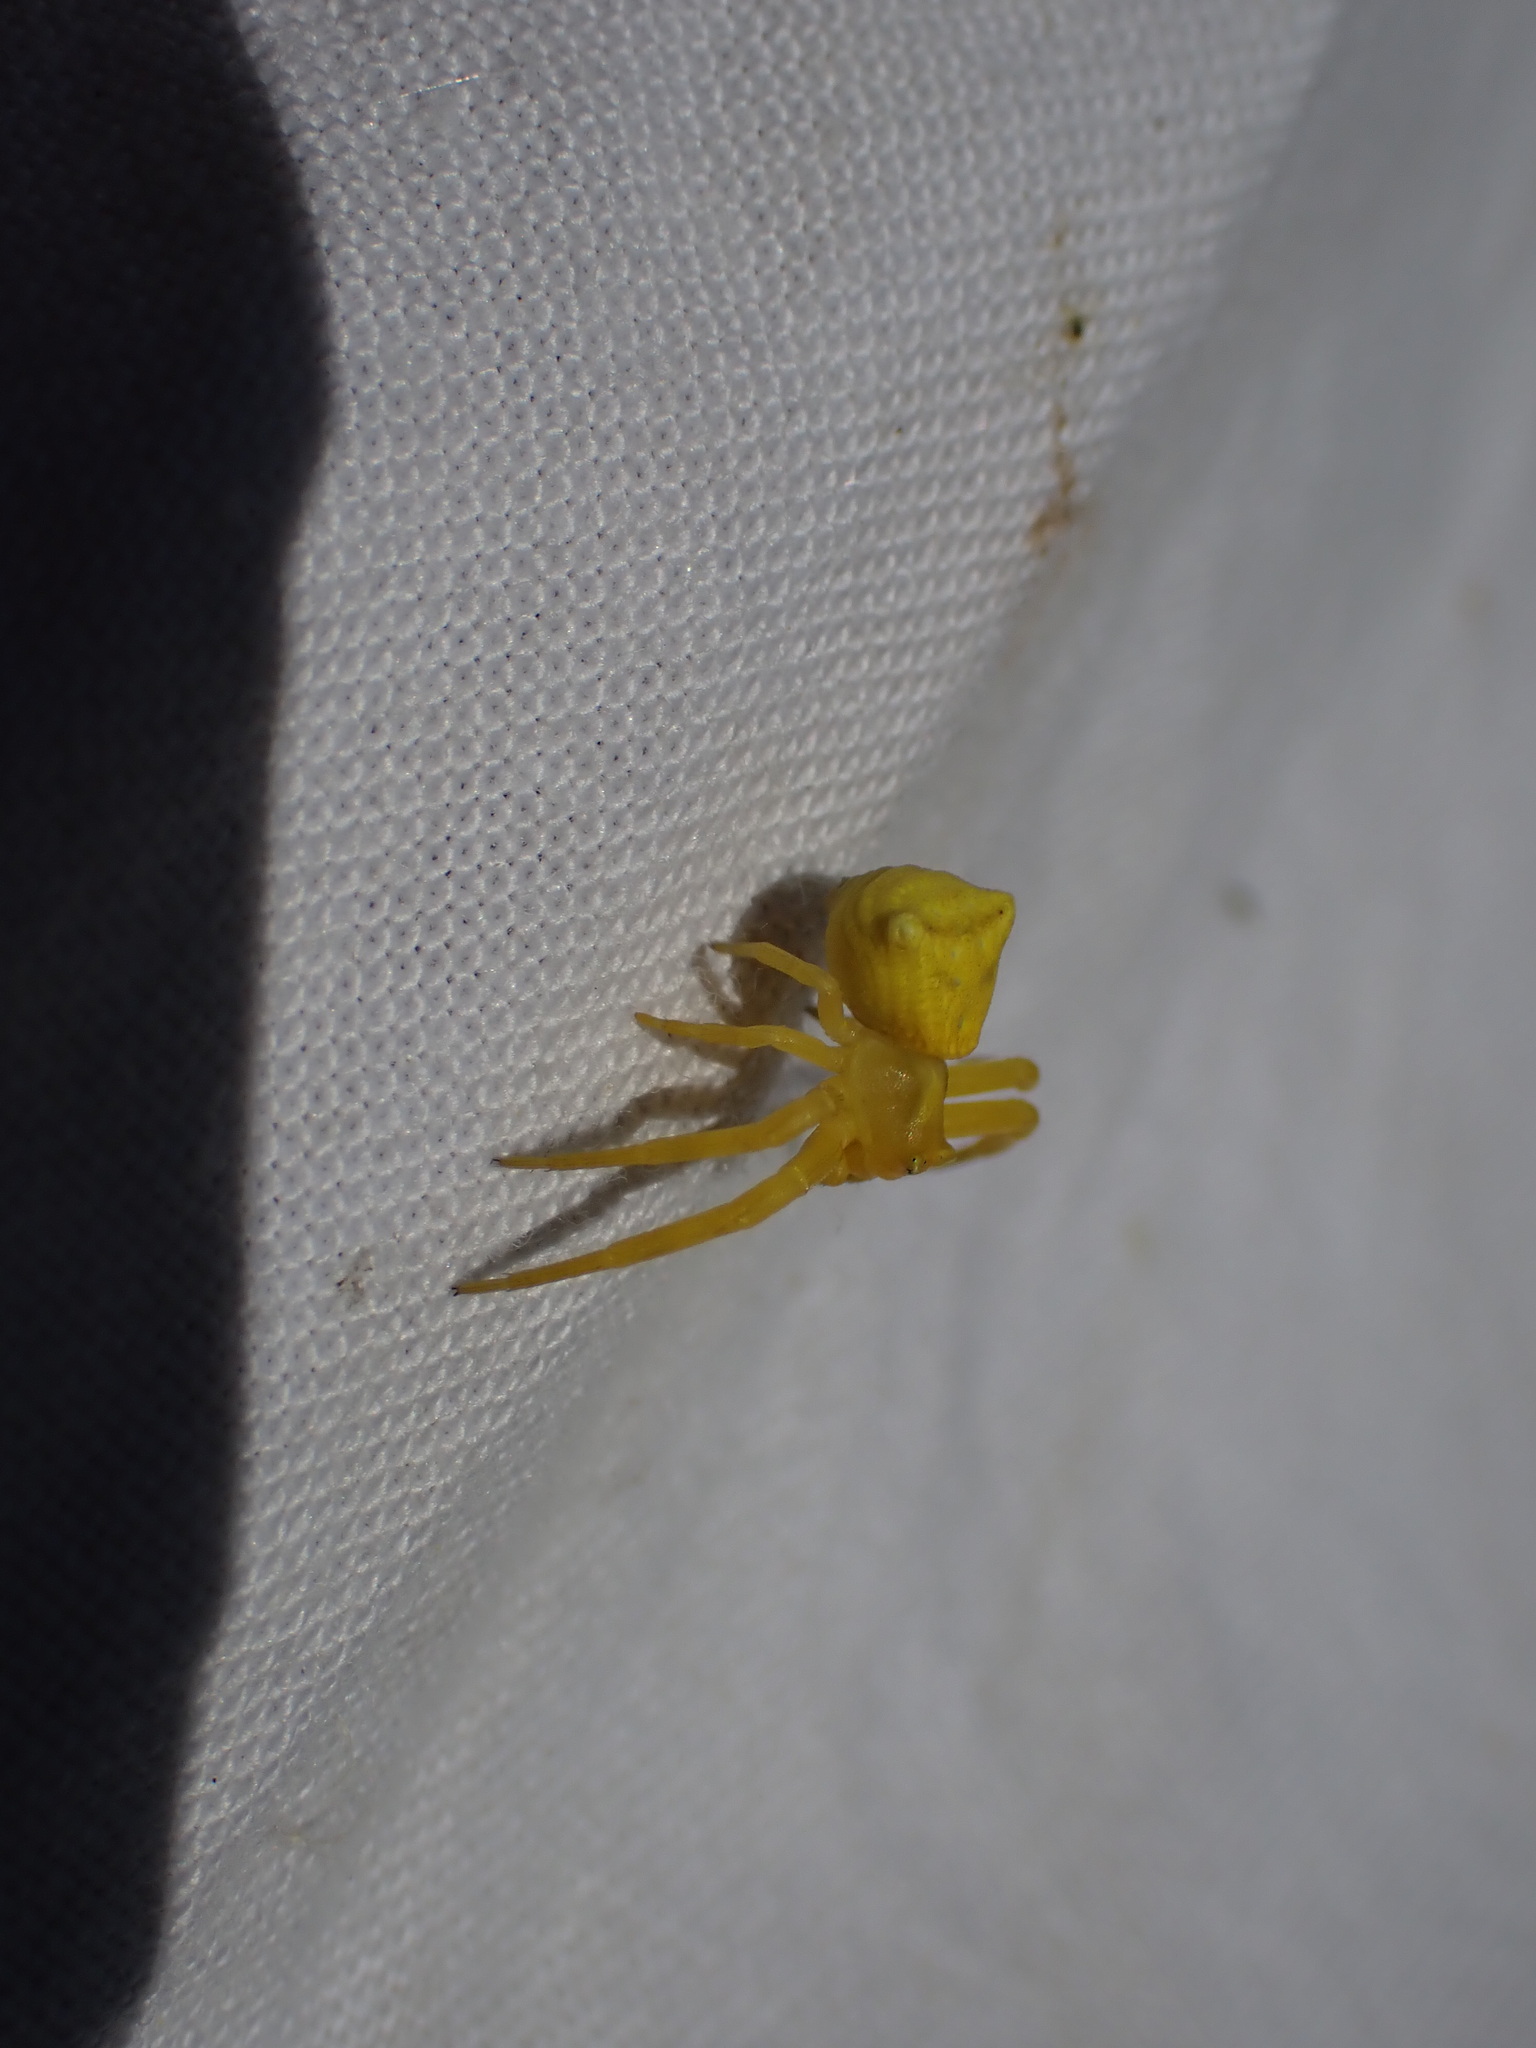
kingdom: Animalia
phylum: Arthropoda
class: Arachnida
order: Araneae
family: Thomisidae
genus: Thomisus
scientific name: Thomisus onustus
